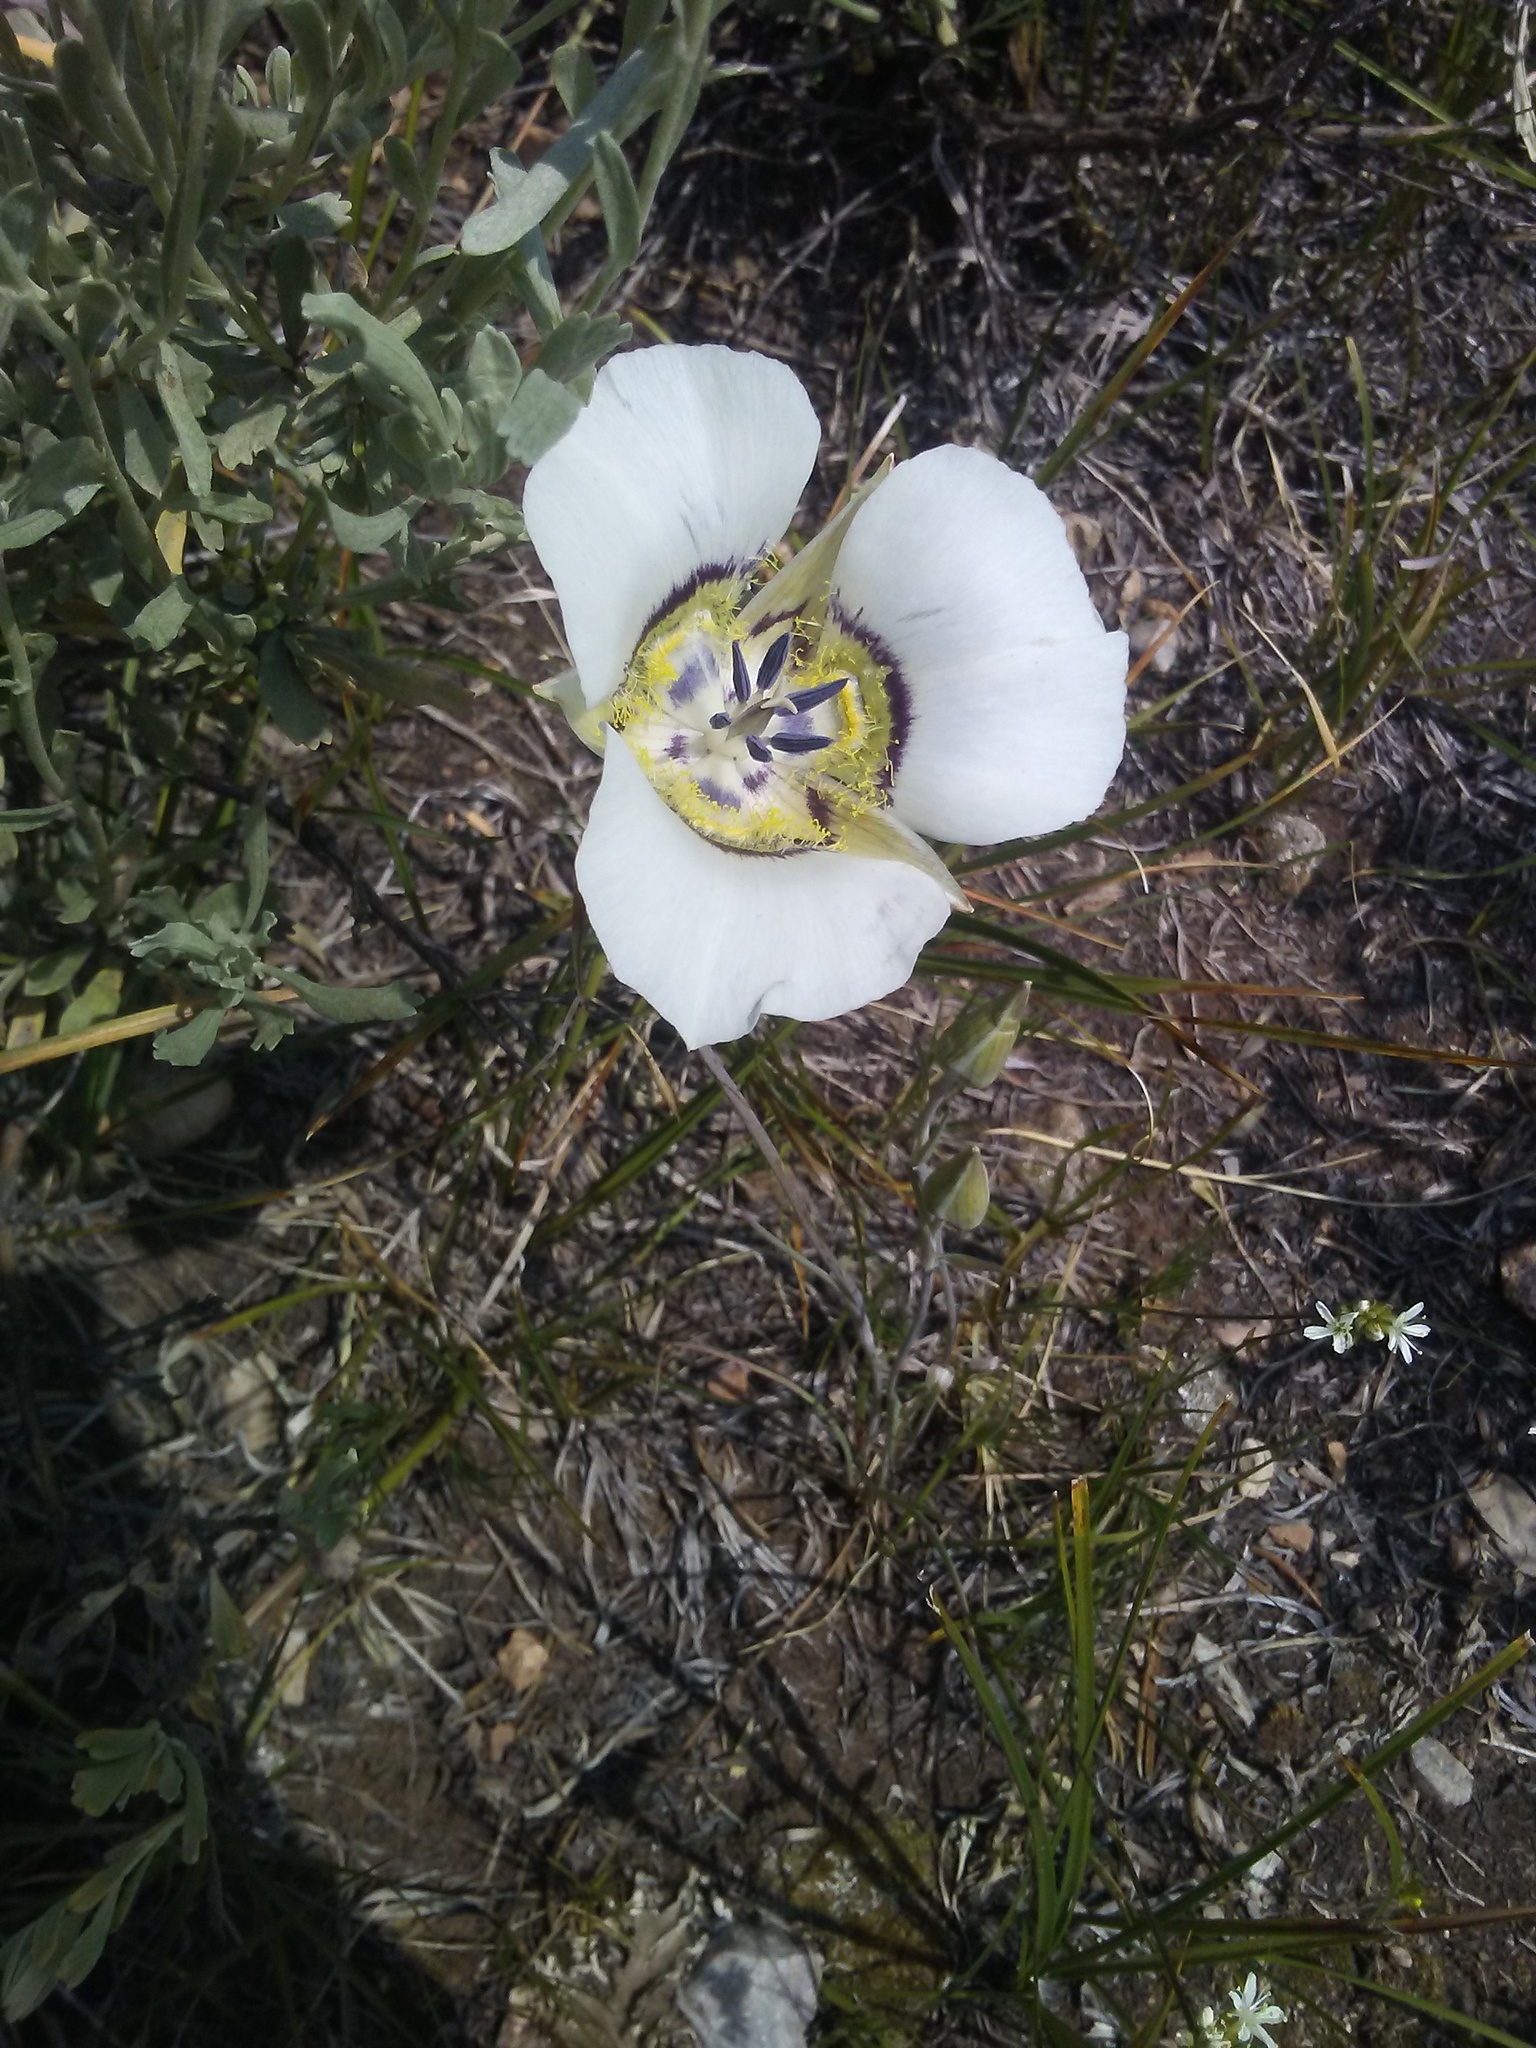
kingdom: Plantae
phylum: Tracheophyta
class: Liliopsida
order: Liliales
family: Liliaceae
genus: Calochortus
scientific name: Calochortus gunnisonii
